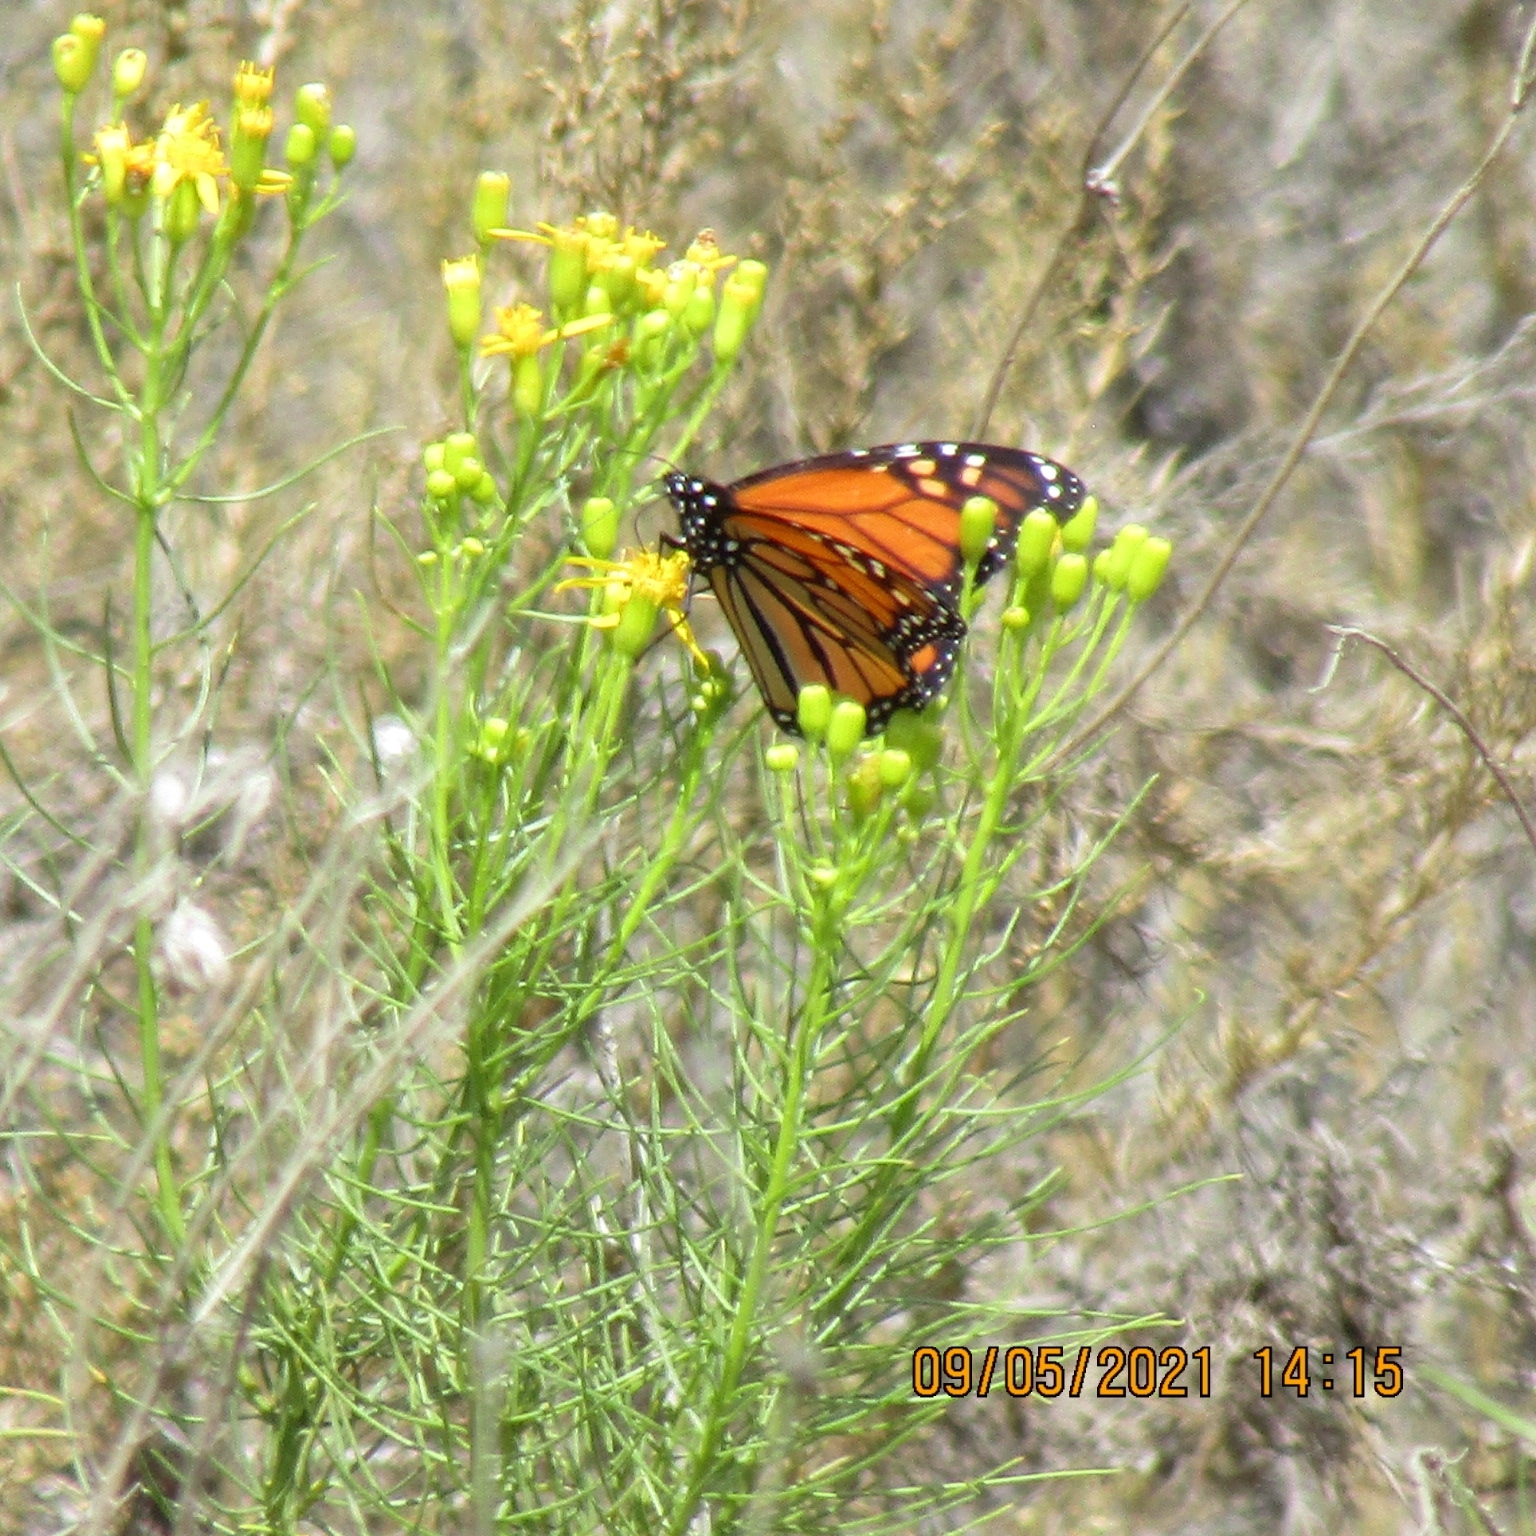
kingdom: Animalia
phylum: Arthropoda
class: Insecta
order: Lepidoptera
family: Nymphalidae
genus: Danaus
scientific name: Danaus plexippus
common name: Monarch
